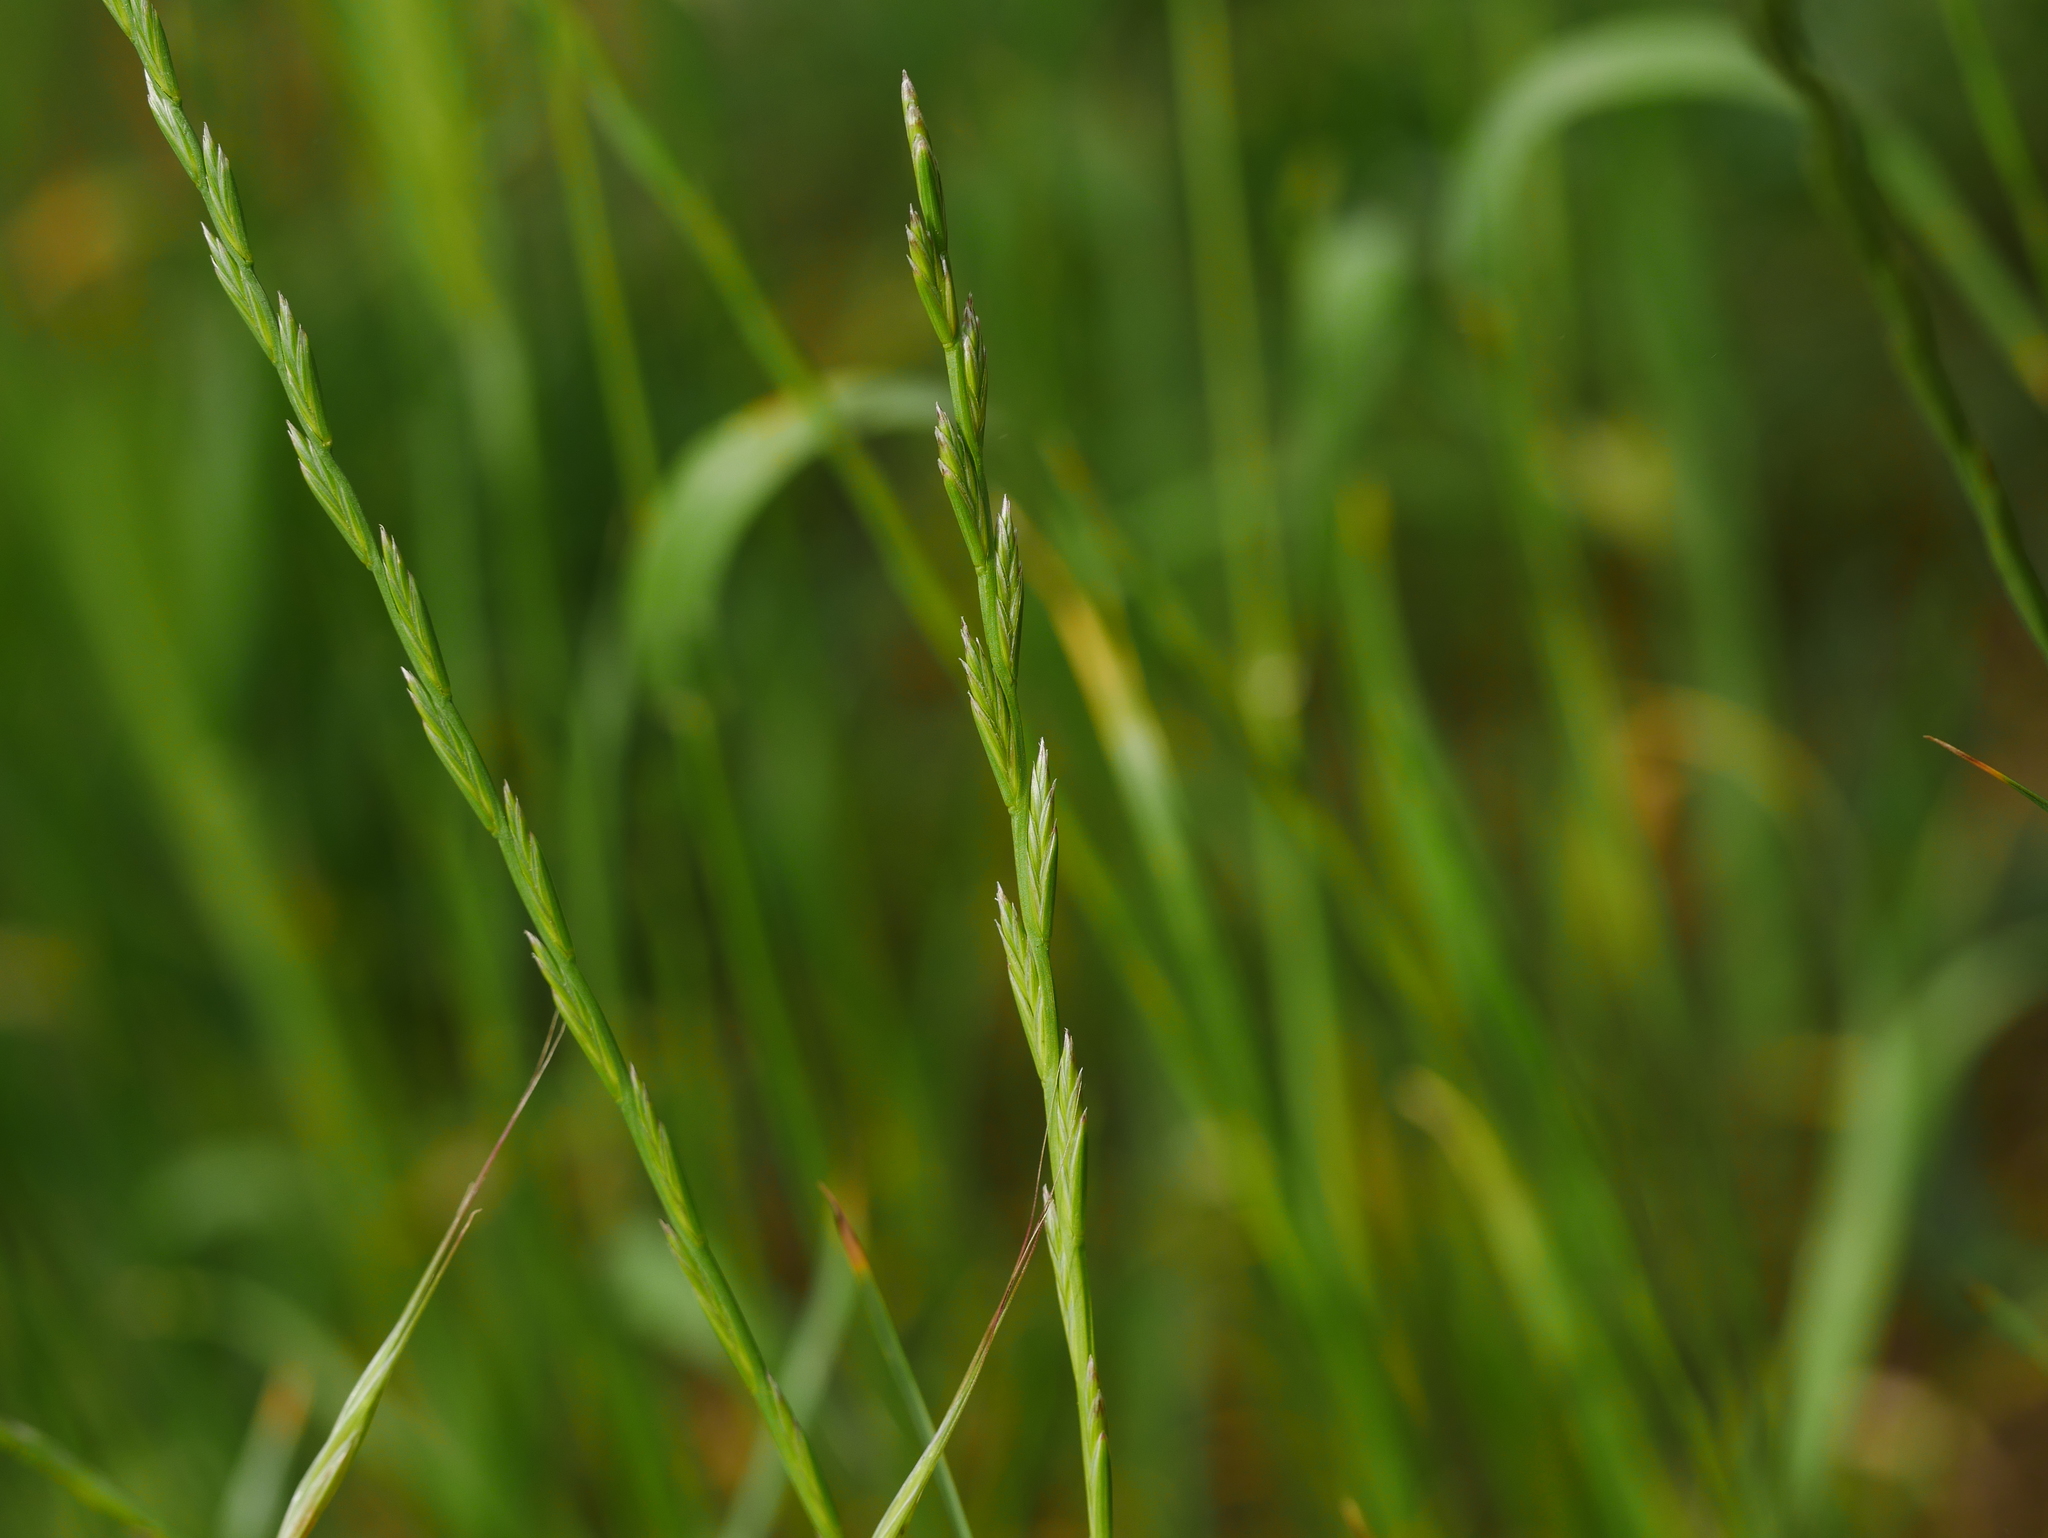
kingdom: Plantae
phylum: Tracheophyta
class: Liliopsida
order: Poales
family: Poaceae
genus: Lolium
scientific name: Lolium perenne
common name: Perennial ryegrass
